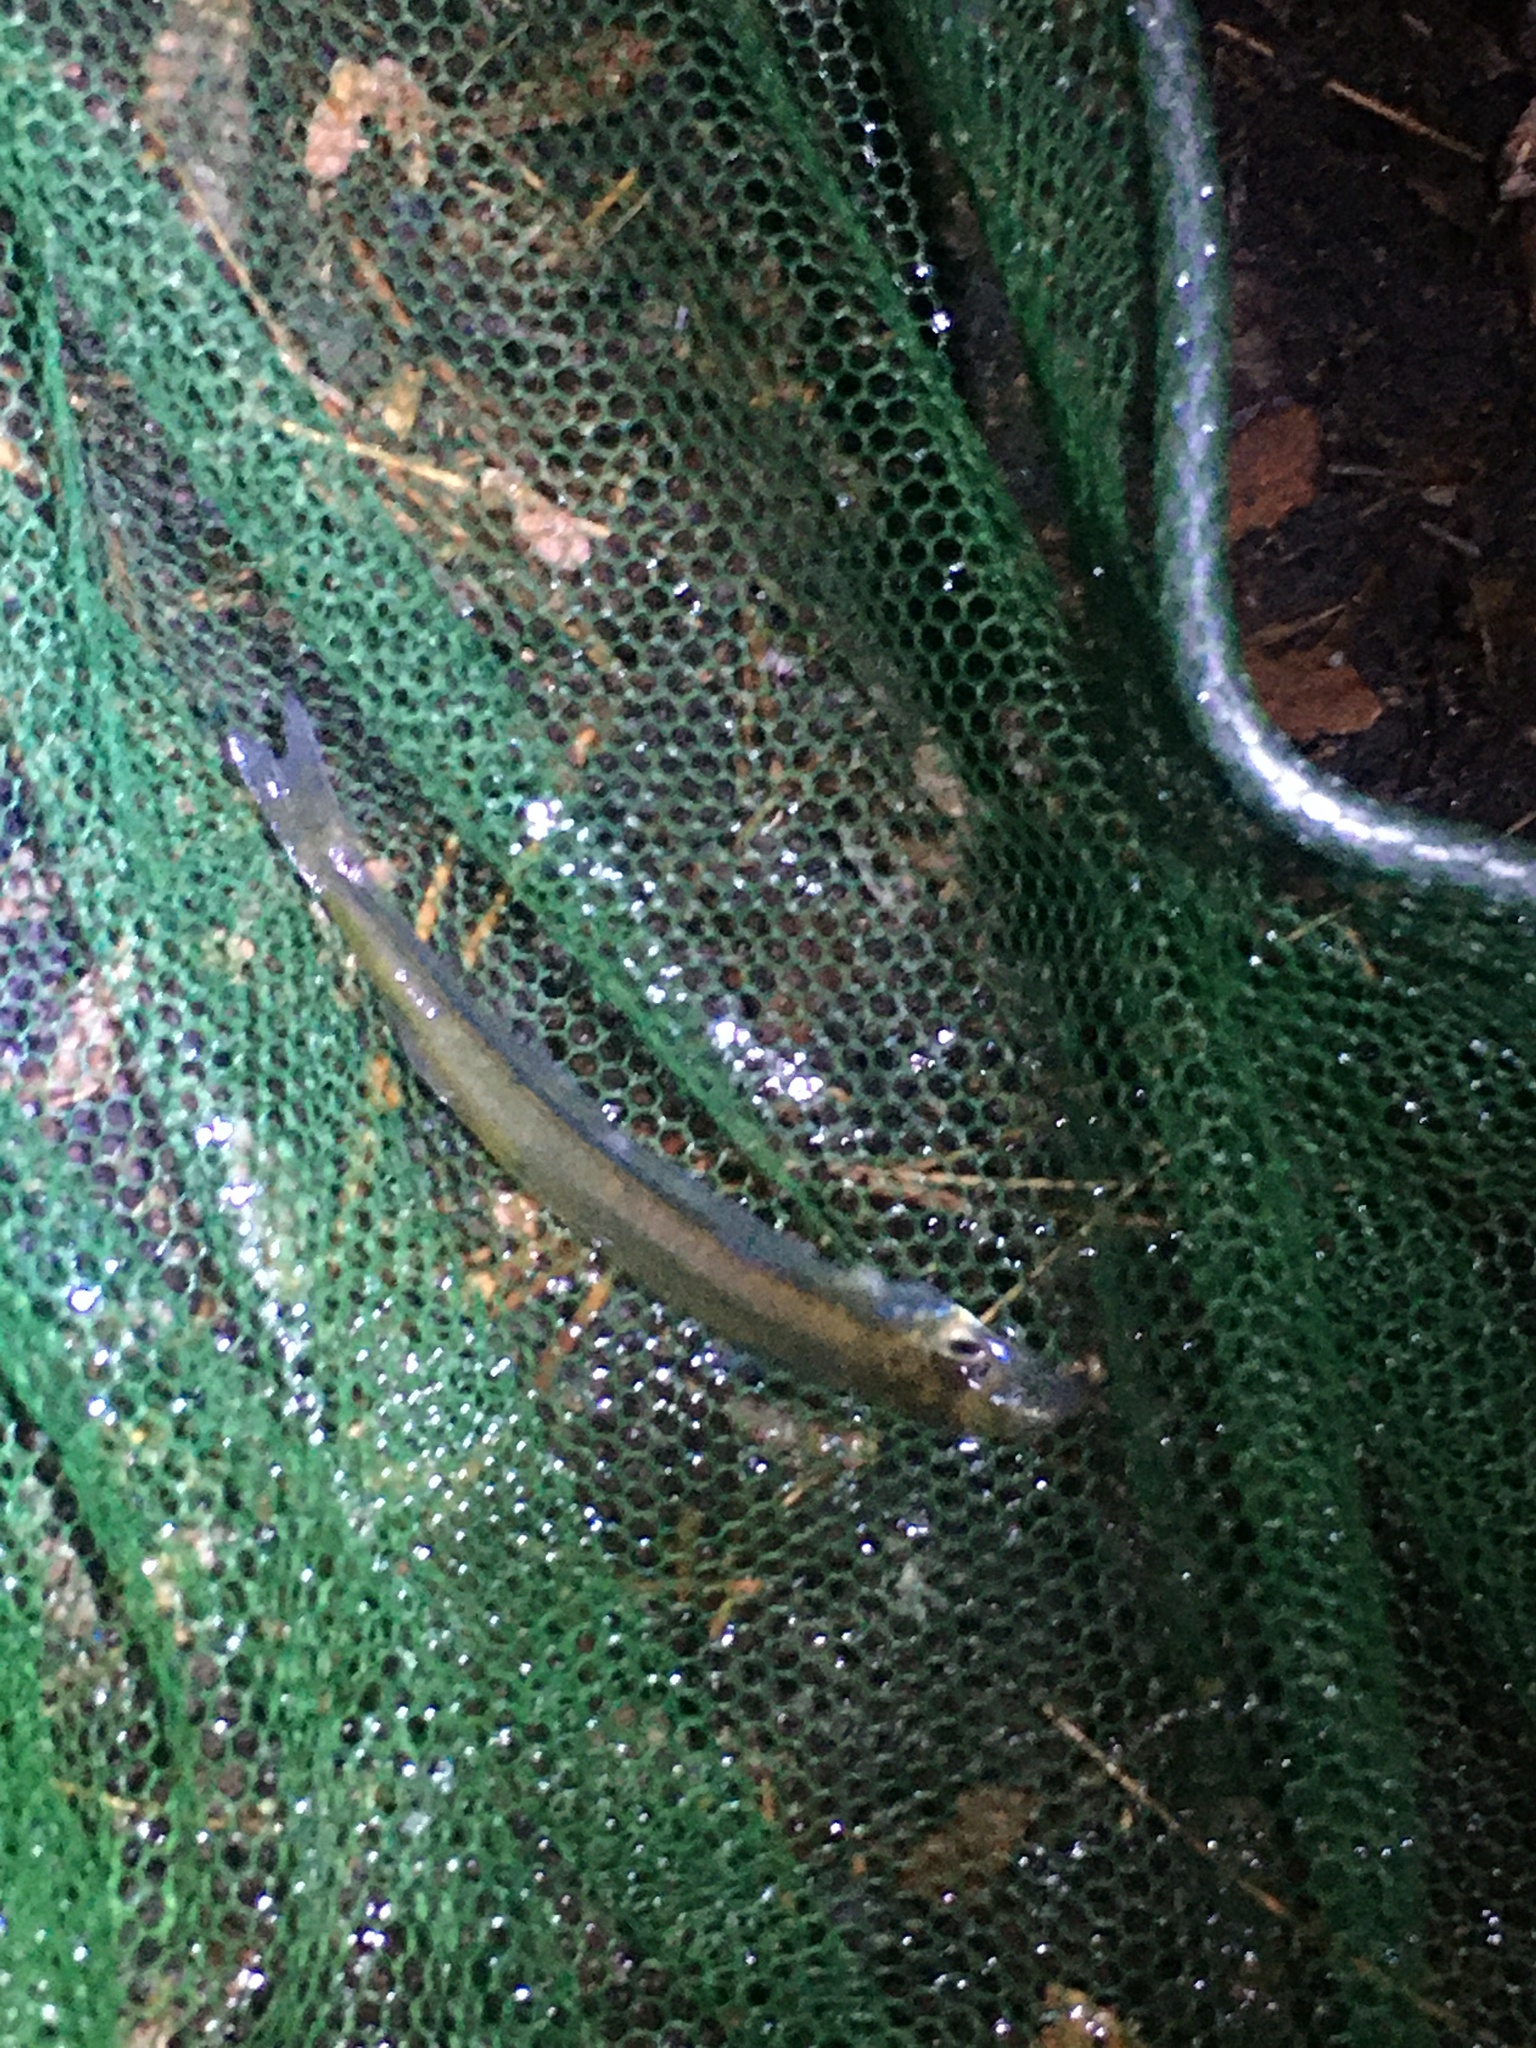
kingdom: Animalia
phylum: Chordata
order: Atheriniformes
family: Atherinopsidae
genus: Labidesthes
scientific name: Labidesthes sicculus
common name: Brook silverside
